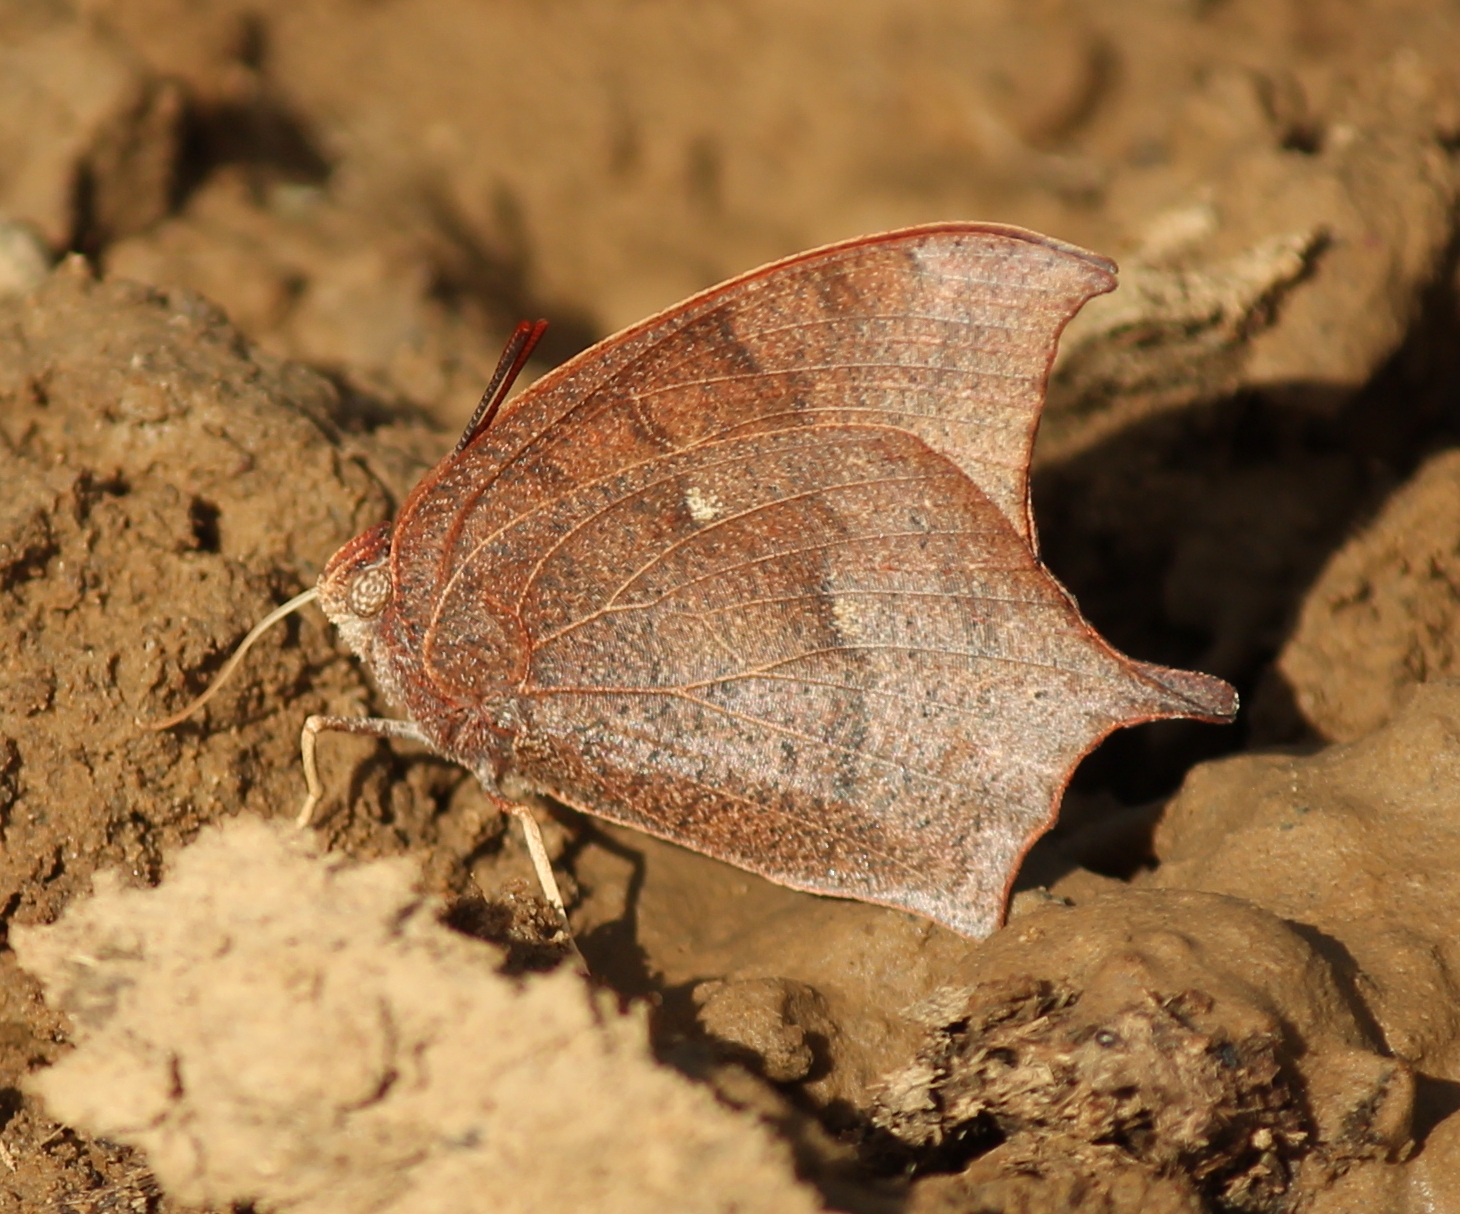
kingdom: Animalia
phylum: Arthropoda
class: Insecta
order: Lepidoptera
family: Nymphalidae
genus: Anaea
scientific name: Anaea andria
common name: Goatweed leafwing
